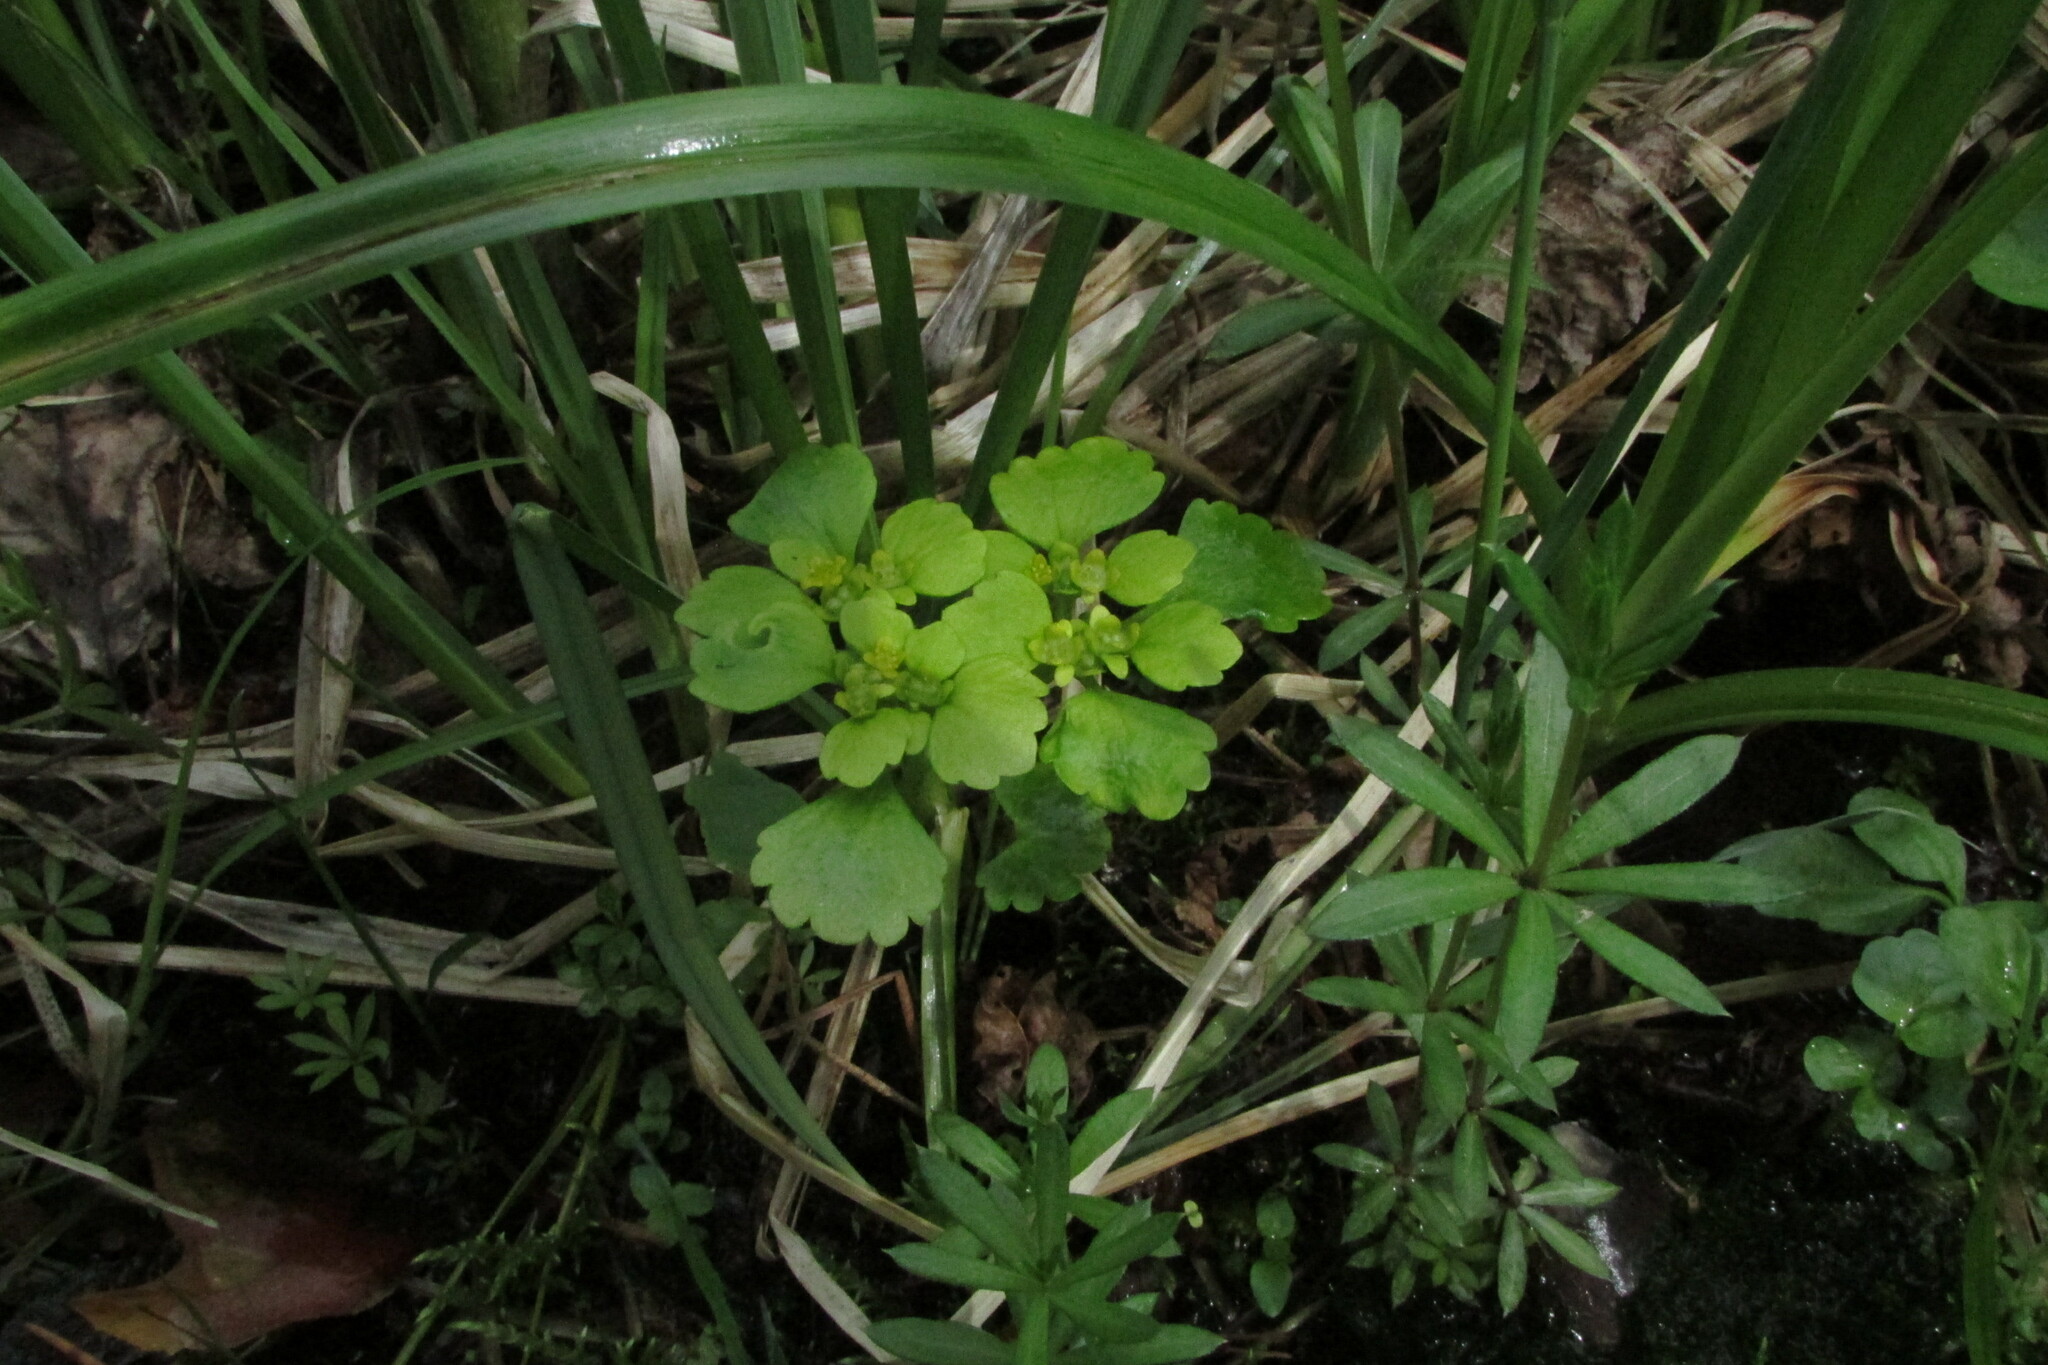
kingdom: Plantae
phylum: Tracheophyta
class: Magnoliopsida
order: Saxifragales
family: Saxifragaceae
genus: Chrysosplenium
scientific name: Chrysosplenium alternifolium
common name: Alternate-leaved golden-saxifrage
